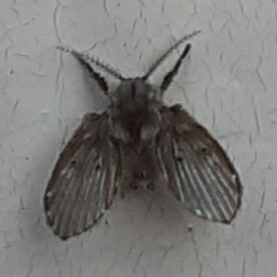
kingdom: Animalia
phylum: Arthropoda
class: Insecta
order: Diptera
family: Psychodidae
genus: Clogmia
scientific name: Clogmia albipunctatus
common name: White-spotted moth fly
